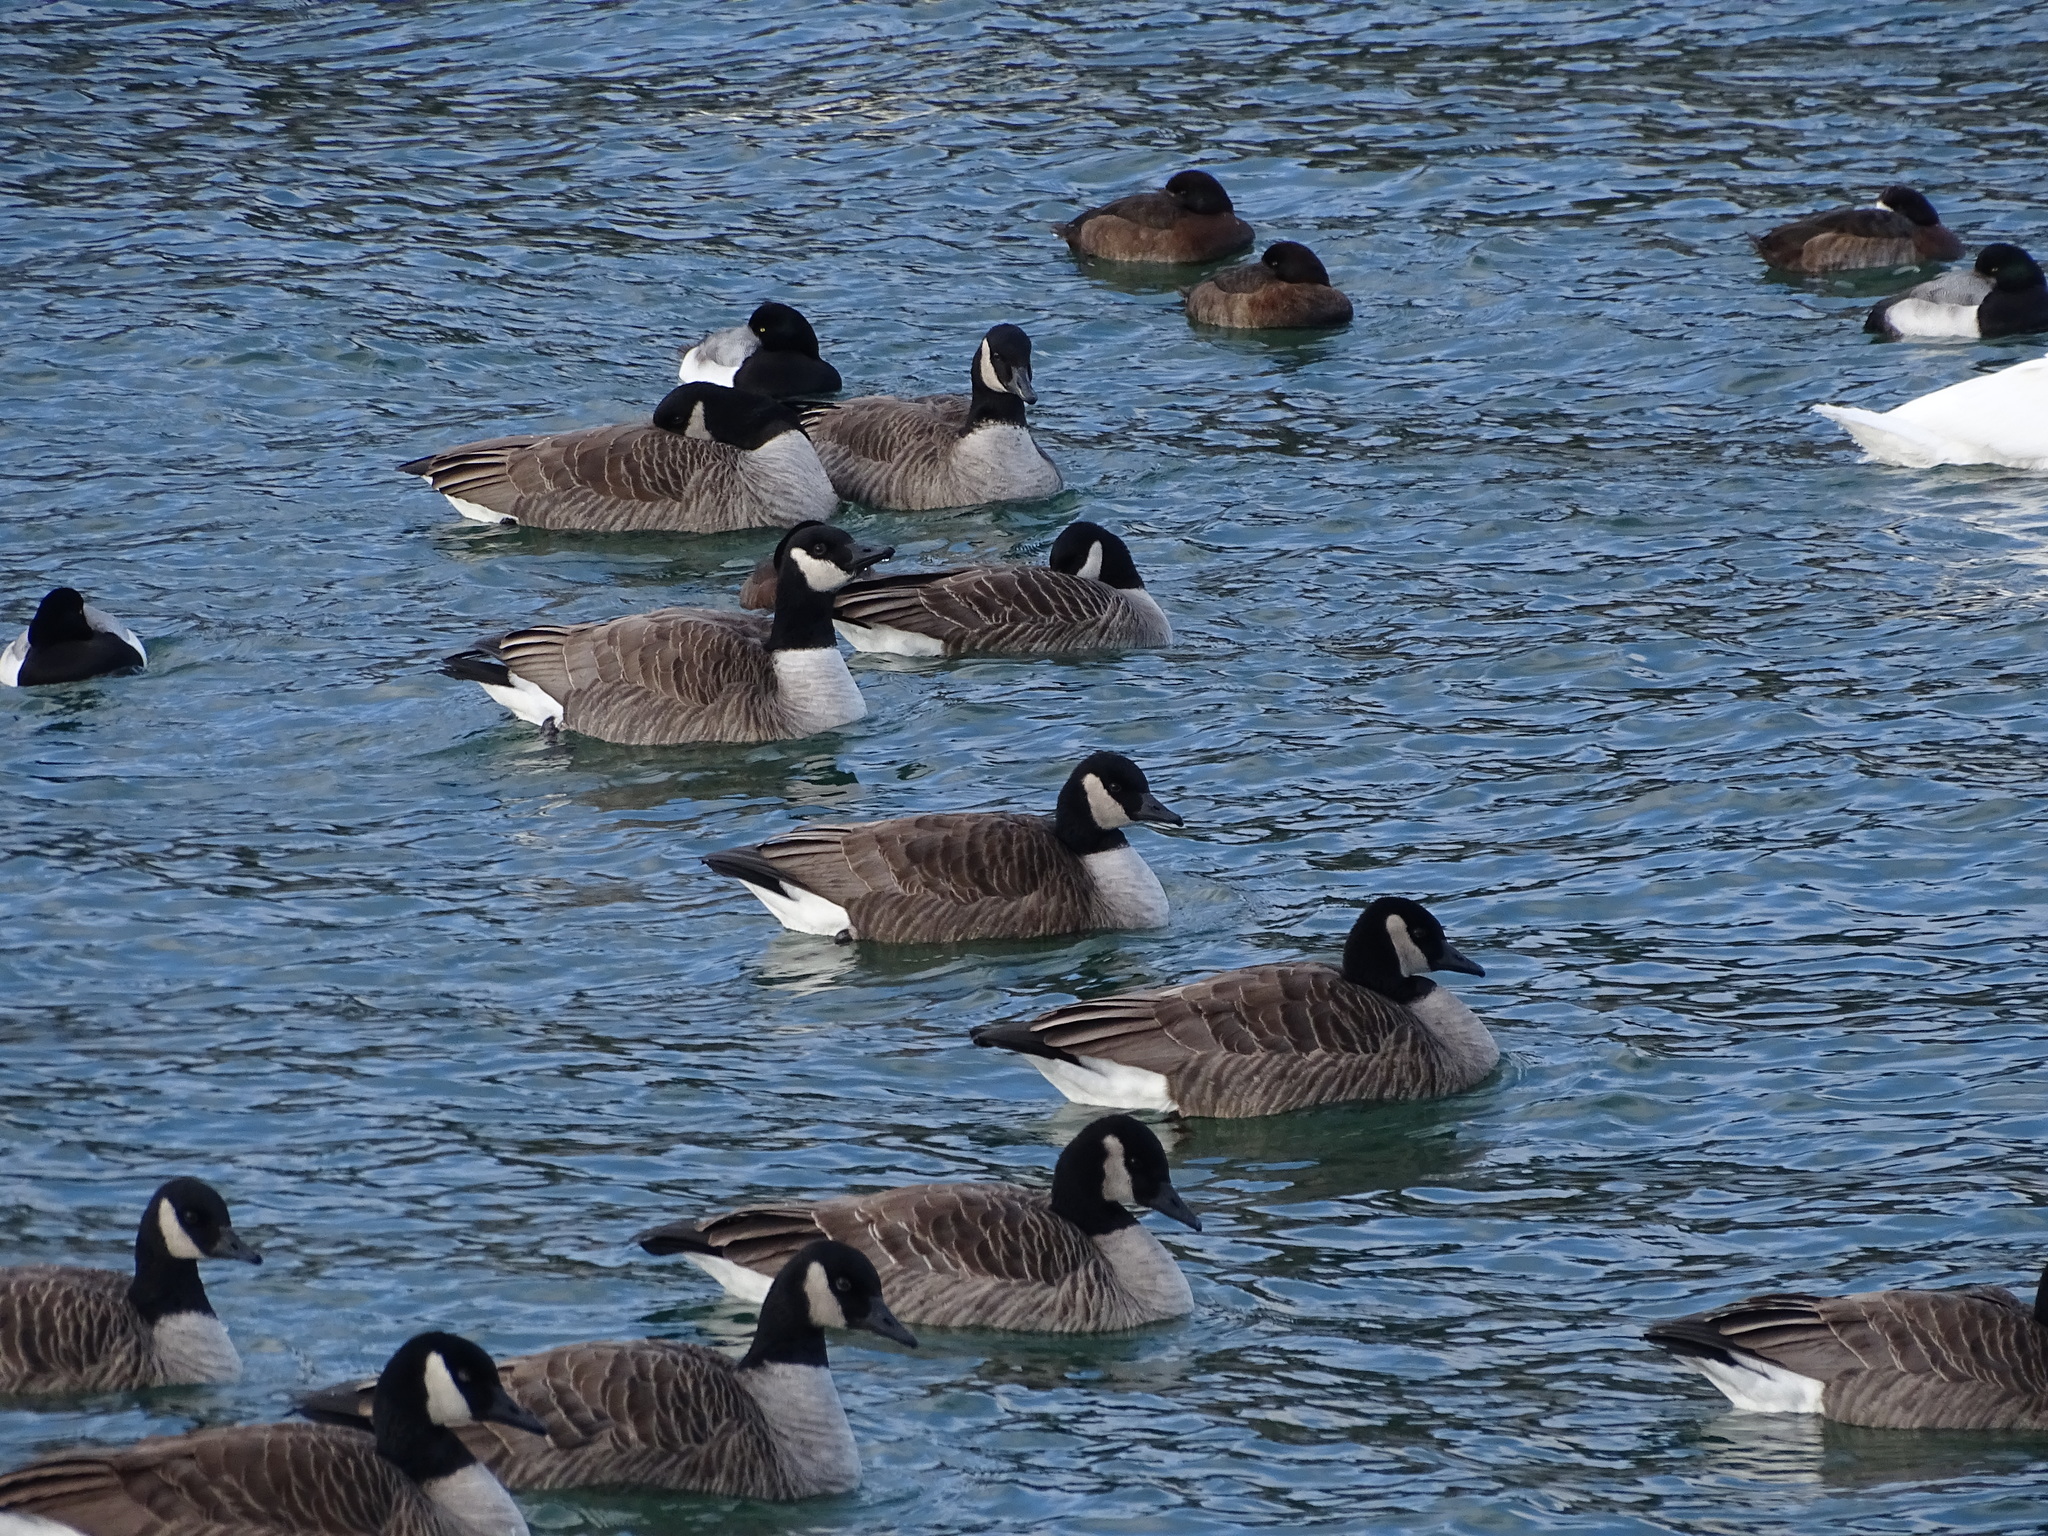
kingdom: Animalia
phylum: Chordata
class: Aves
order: Anseriformes
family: Anatidae
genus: Branta
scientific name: Branta canadensis
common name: Canada goose
